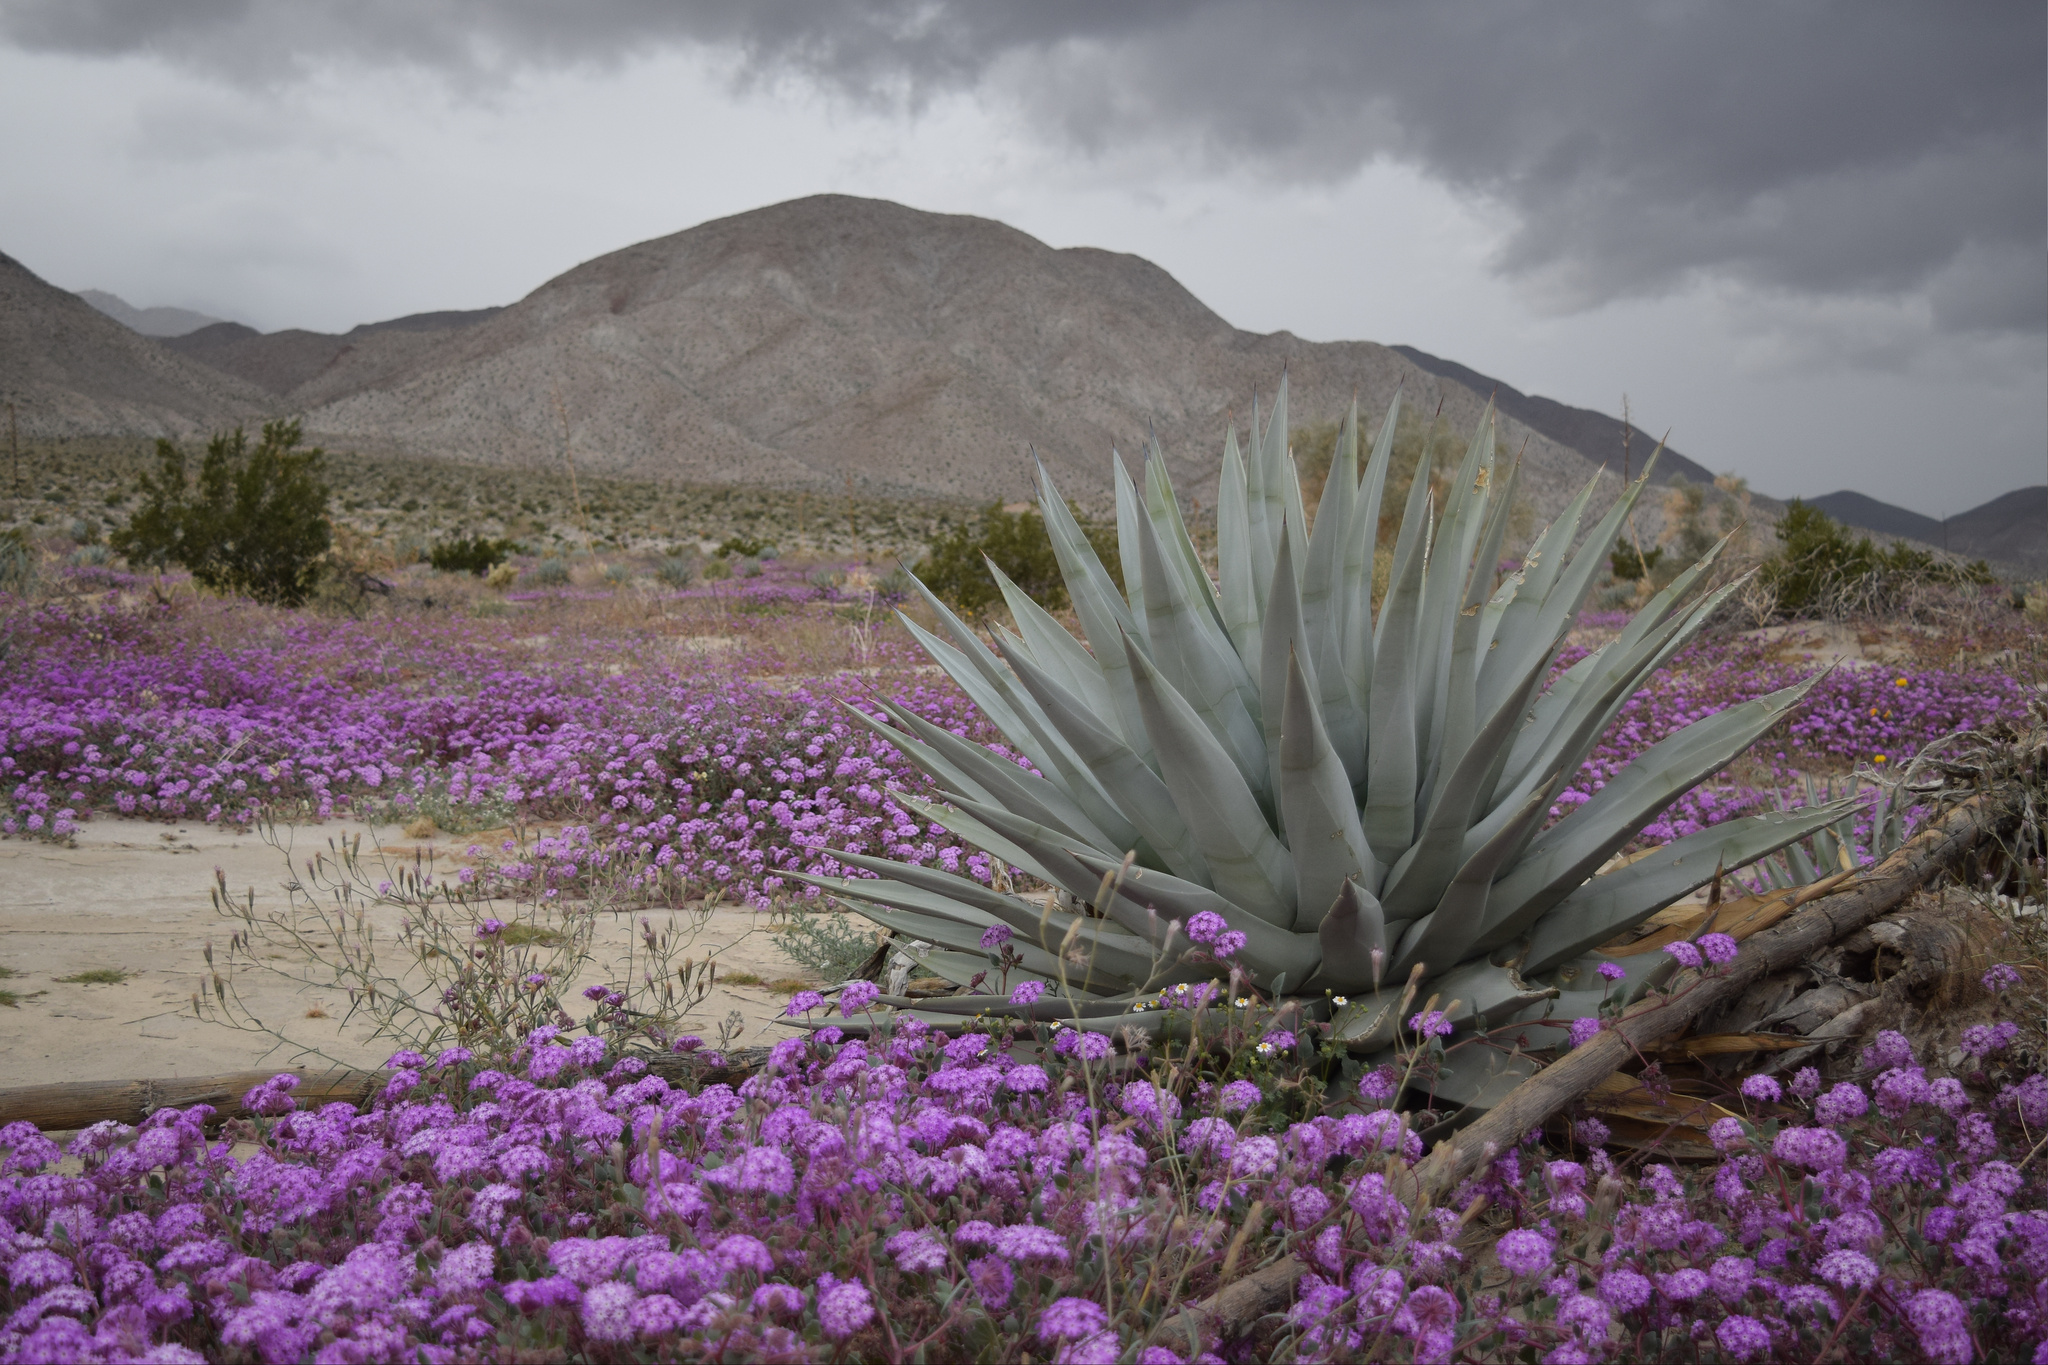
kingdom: Plantae
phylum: Tracheophyta
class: Liliopsida
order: Asparagales
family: Asparagaceae
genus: Agave
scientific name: Agave deserti
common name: Desert agave
